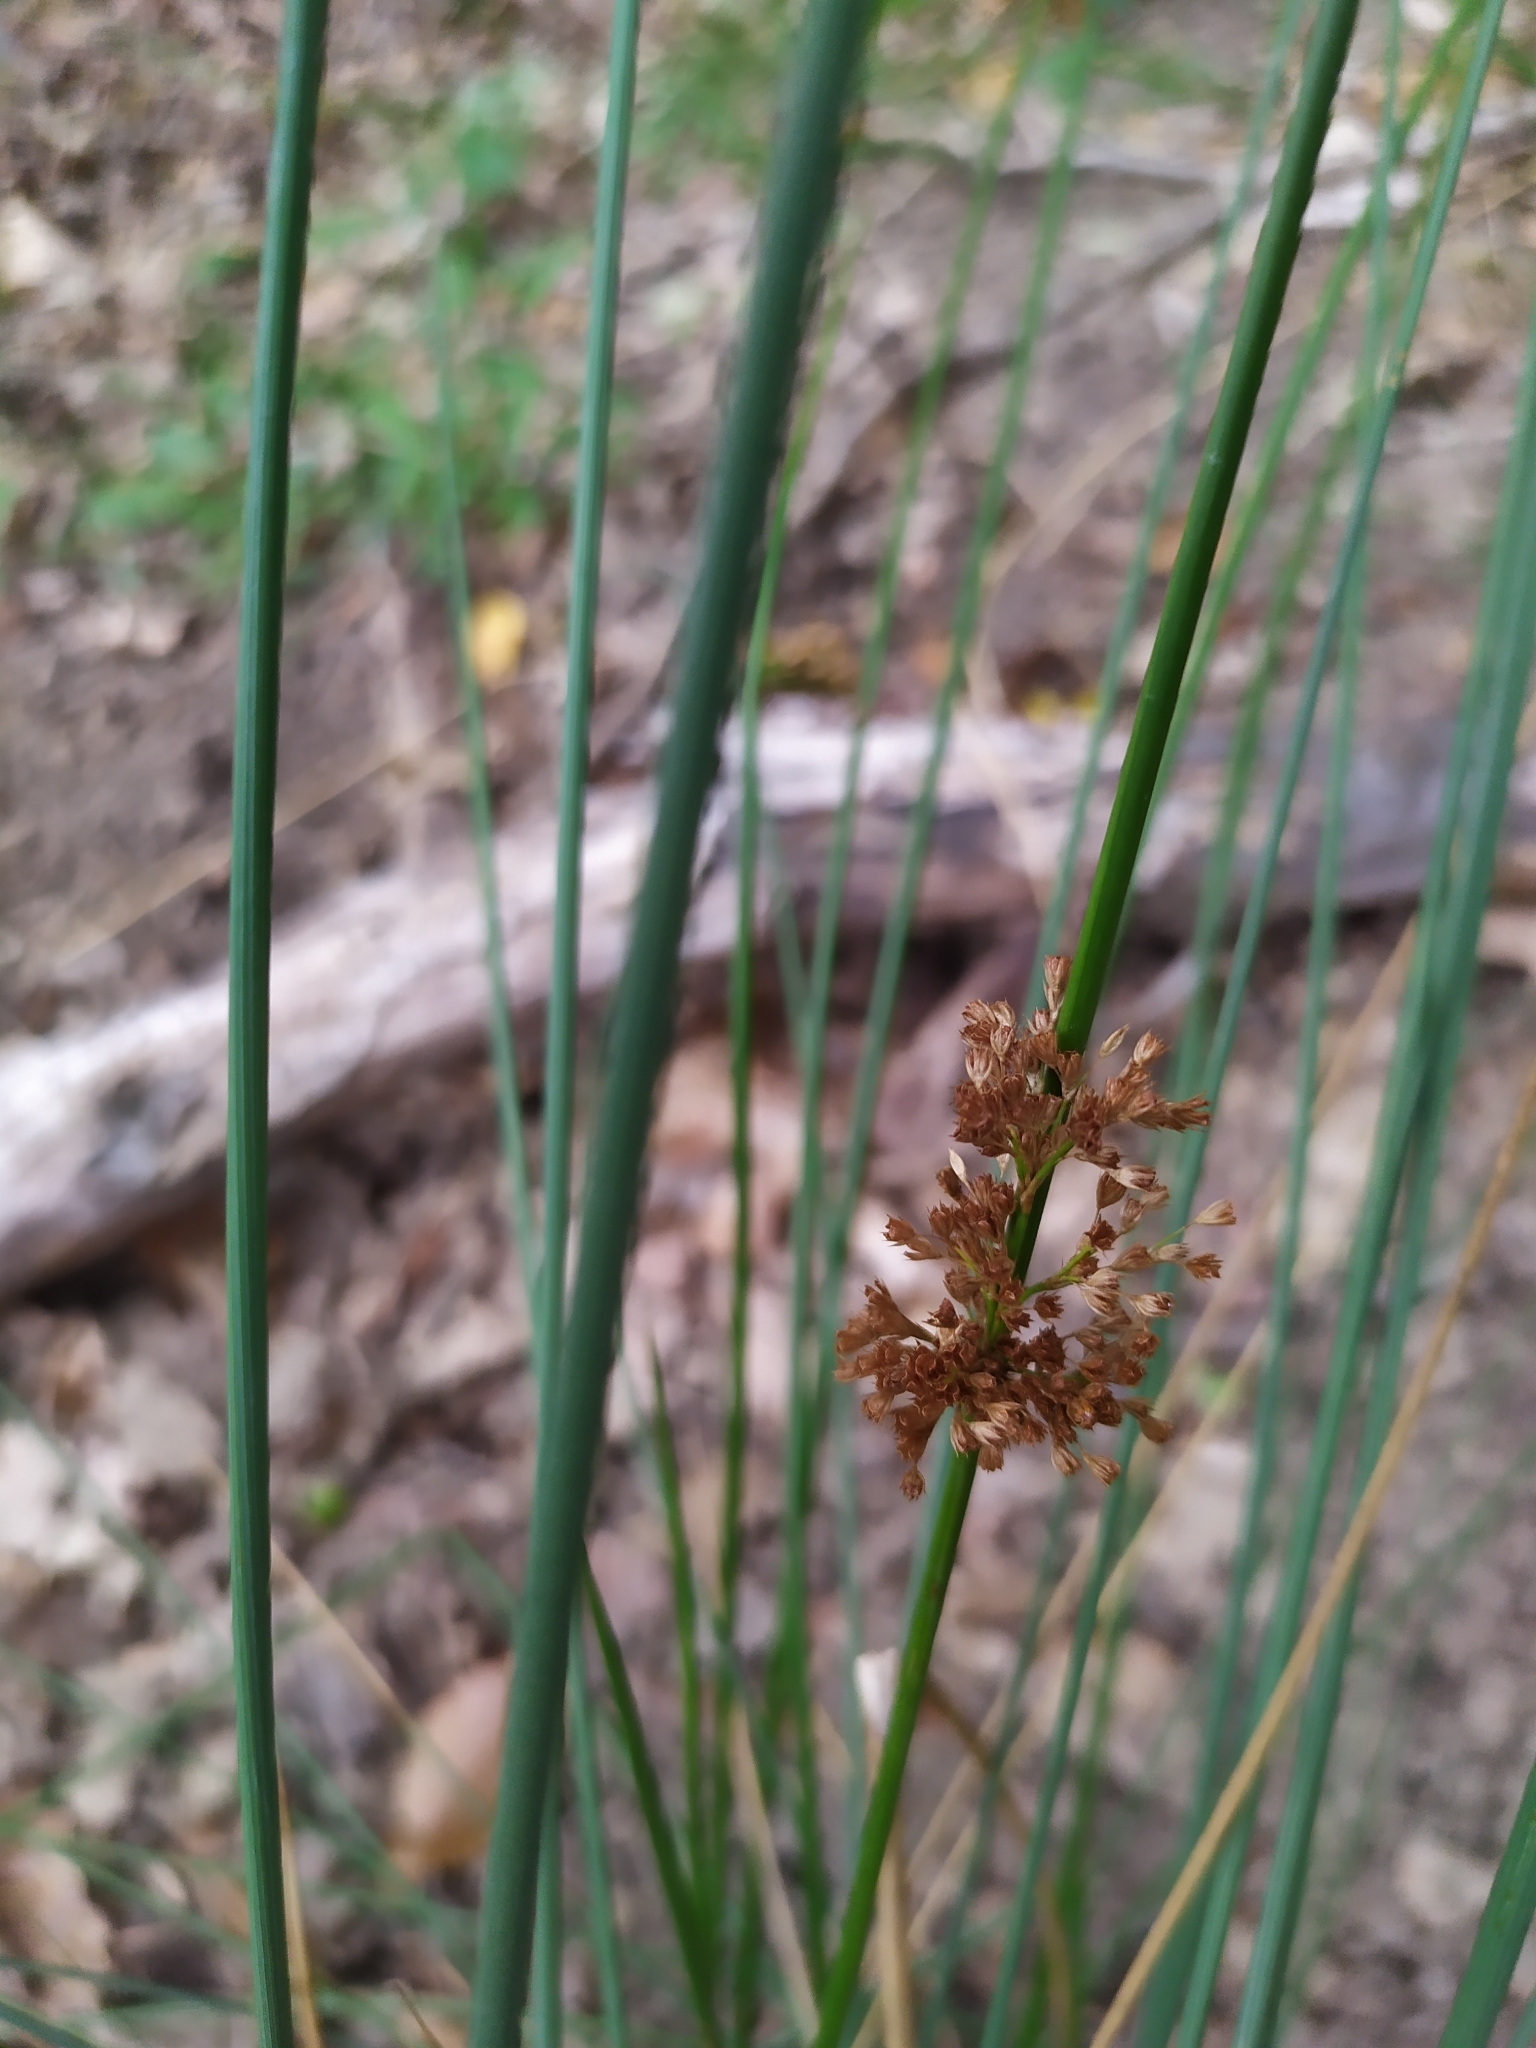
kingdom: Plantae
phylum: Tracheophyta
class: Liliopsida
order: Poales
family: Juncaceae
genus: Juncus
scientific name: Juncus inflexus
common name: Hard rush
